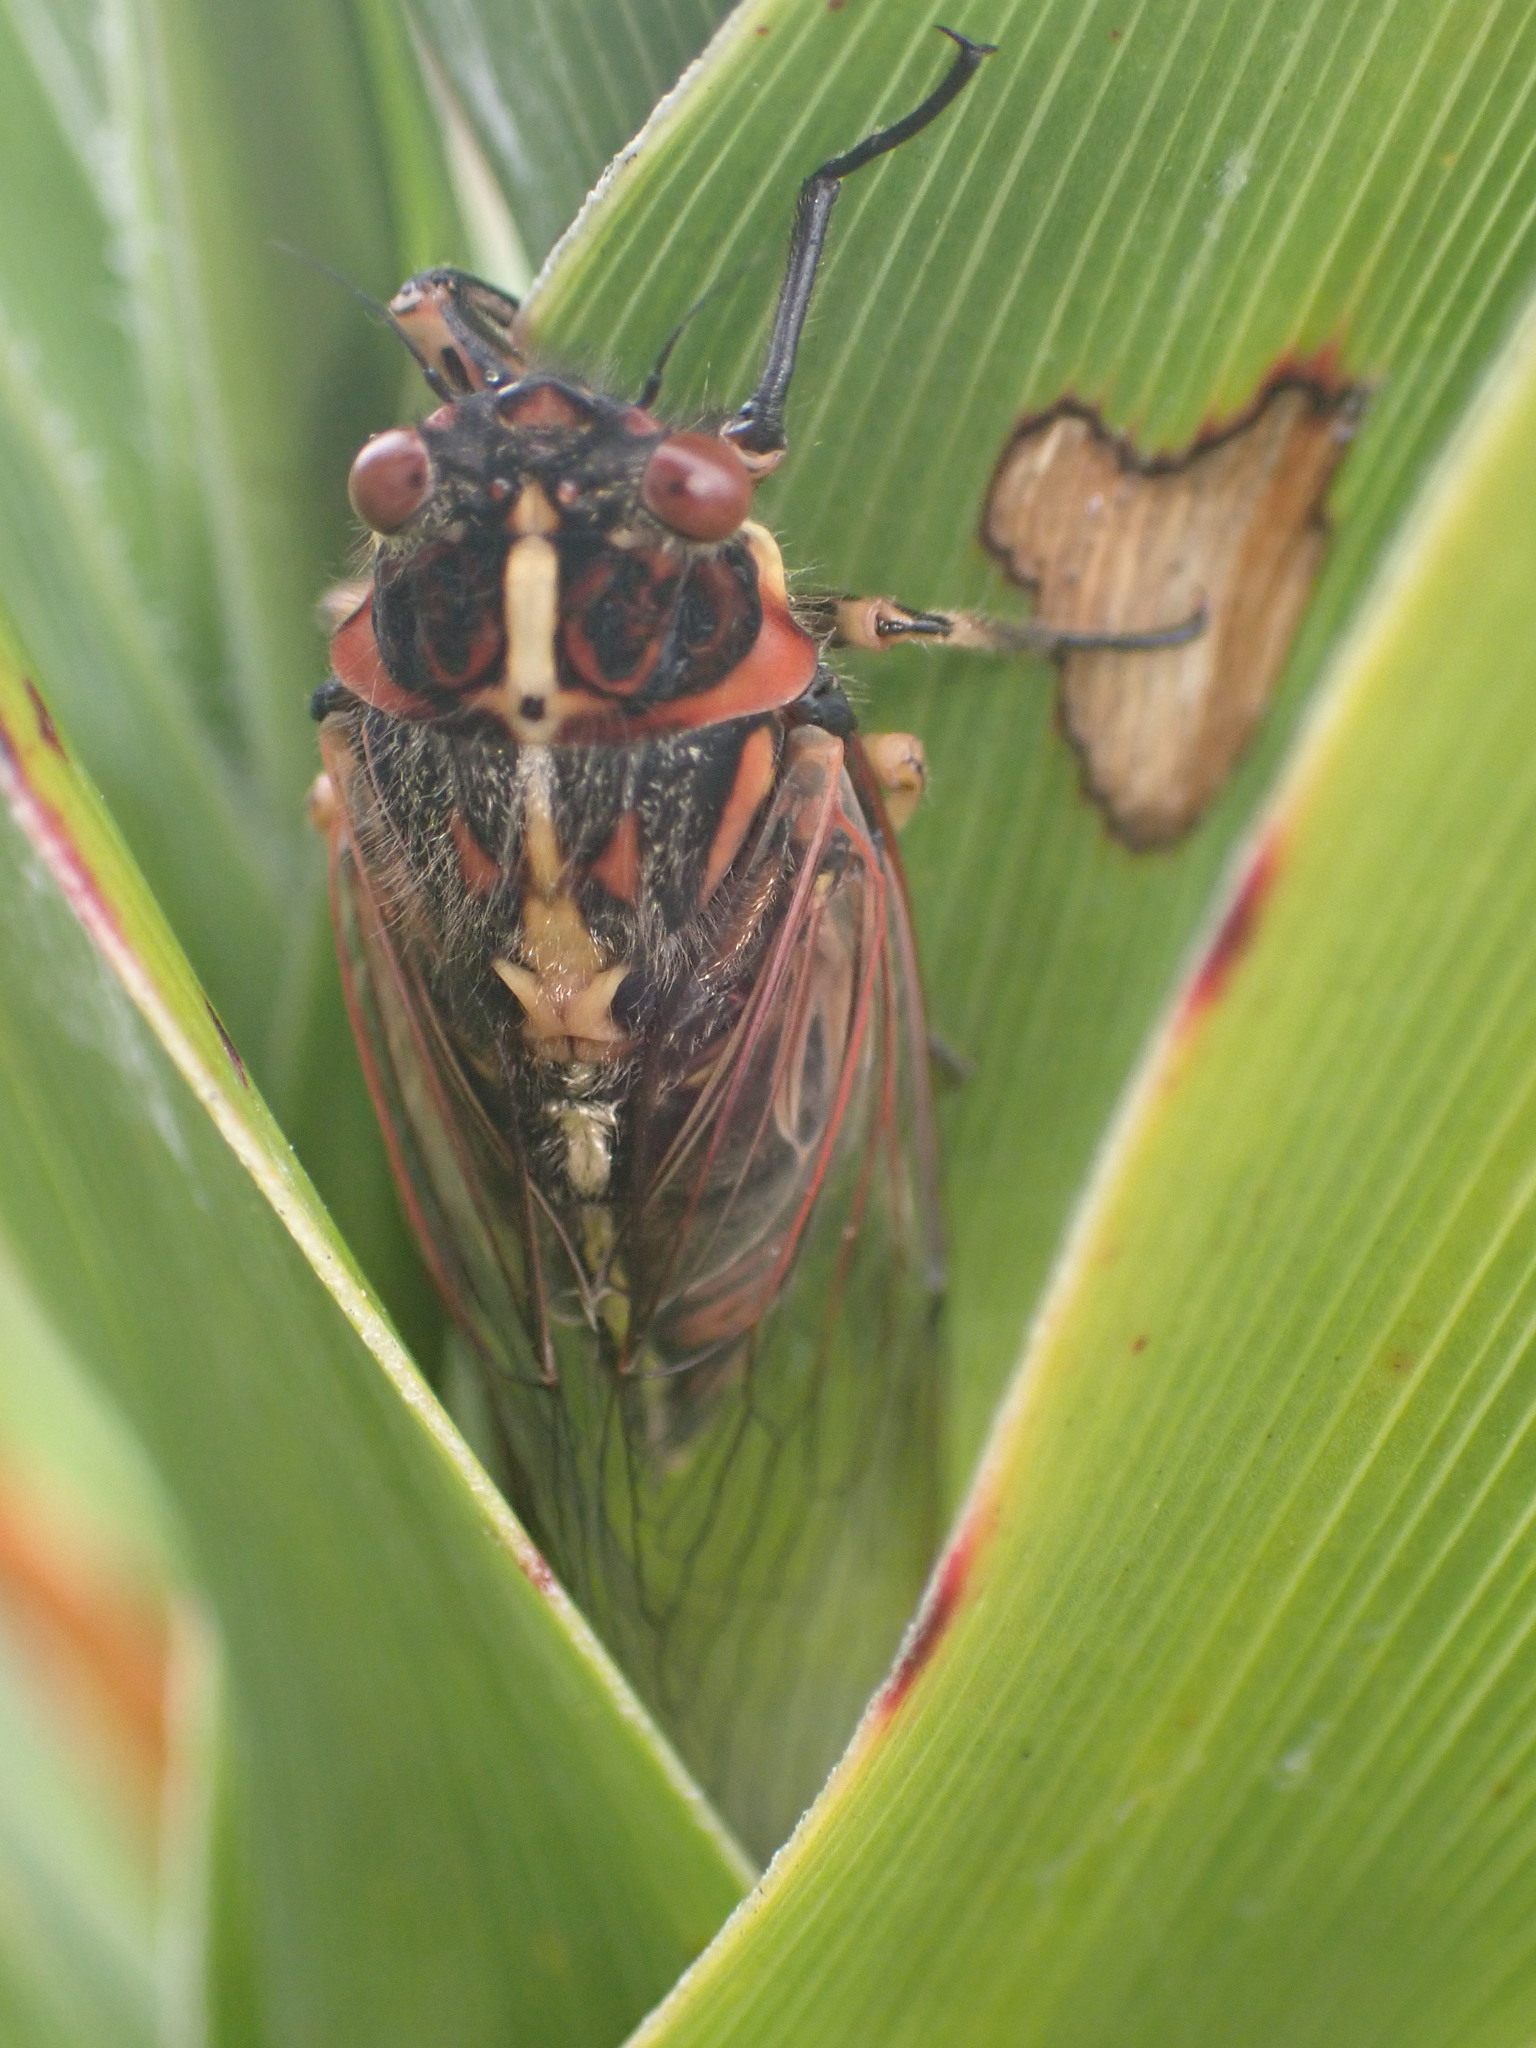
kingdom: Animalia
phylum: Arthropoda
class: Insecta
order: Hemiptera
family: Cicadidae
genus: Kikihia
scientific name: Kikihia longula
